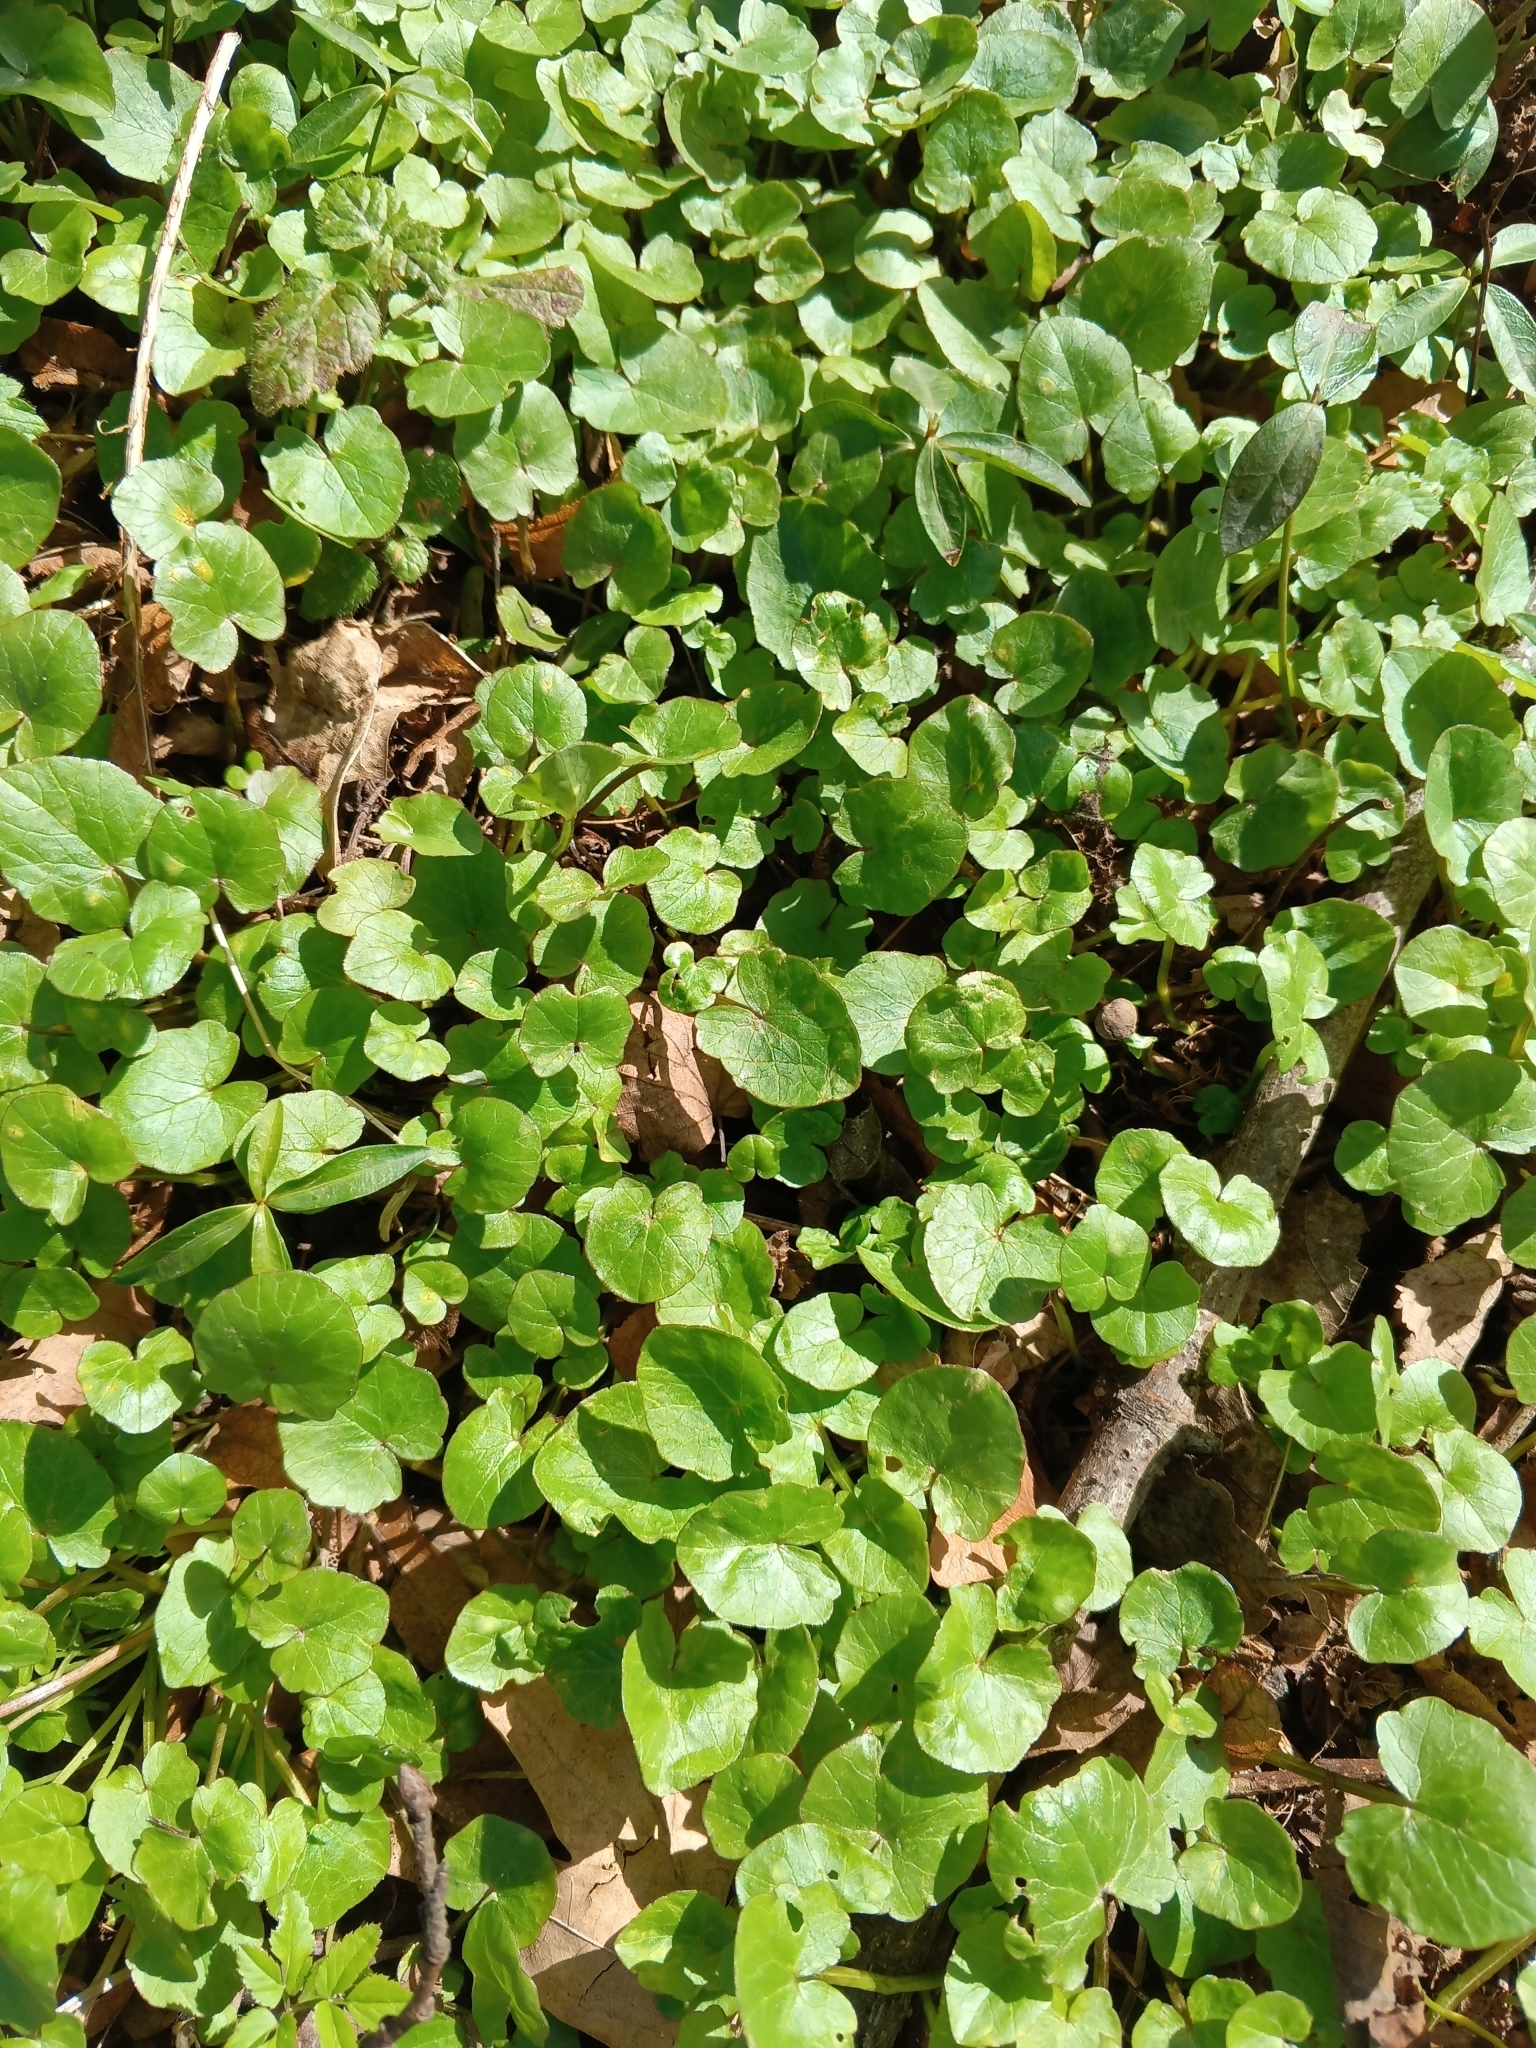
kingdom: Plantae
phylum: Tracheophyta
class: Magnoliopsida
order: Ranunculales
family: Ranunculaceae
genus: Ficaria
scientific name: Ficaria verna
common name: Lesser celandine
